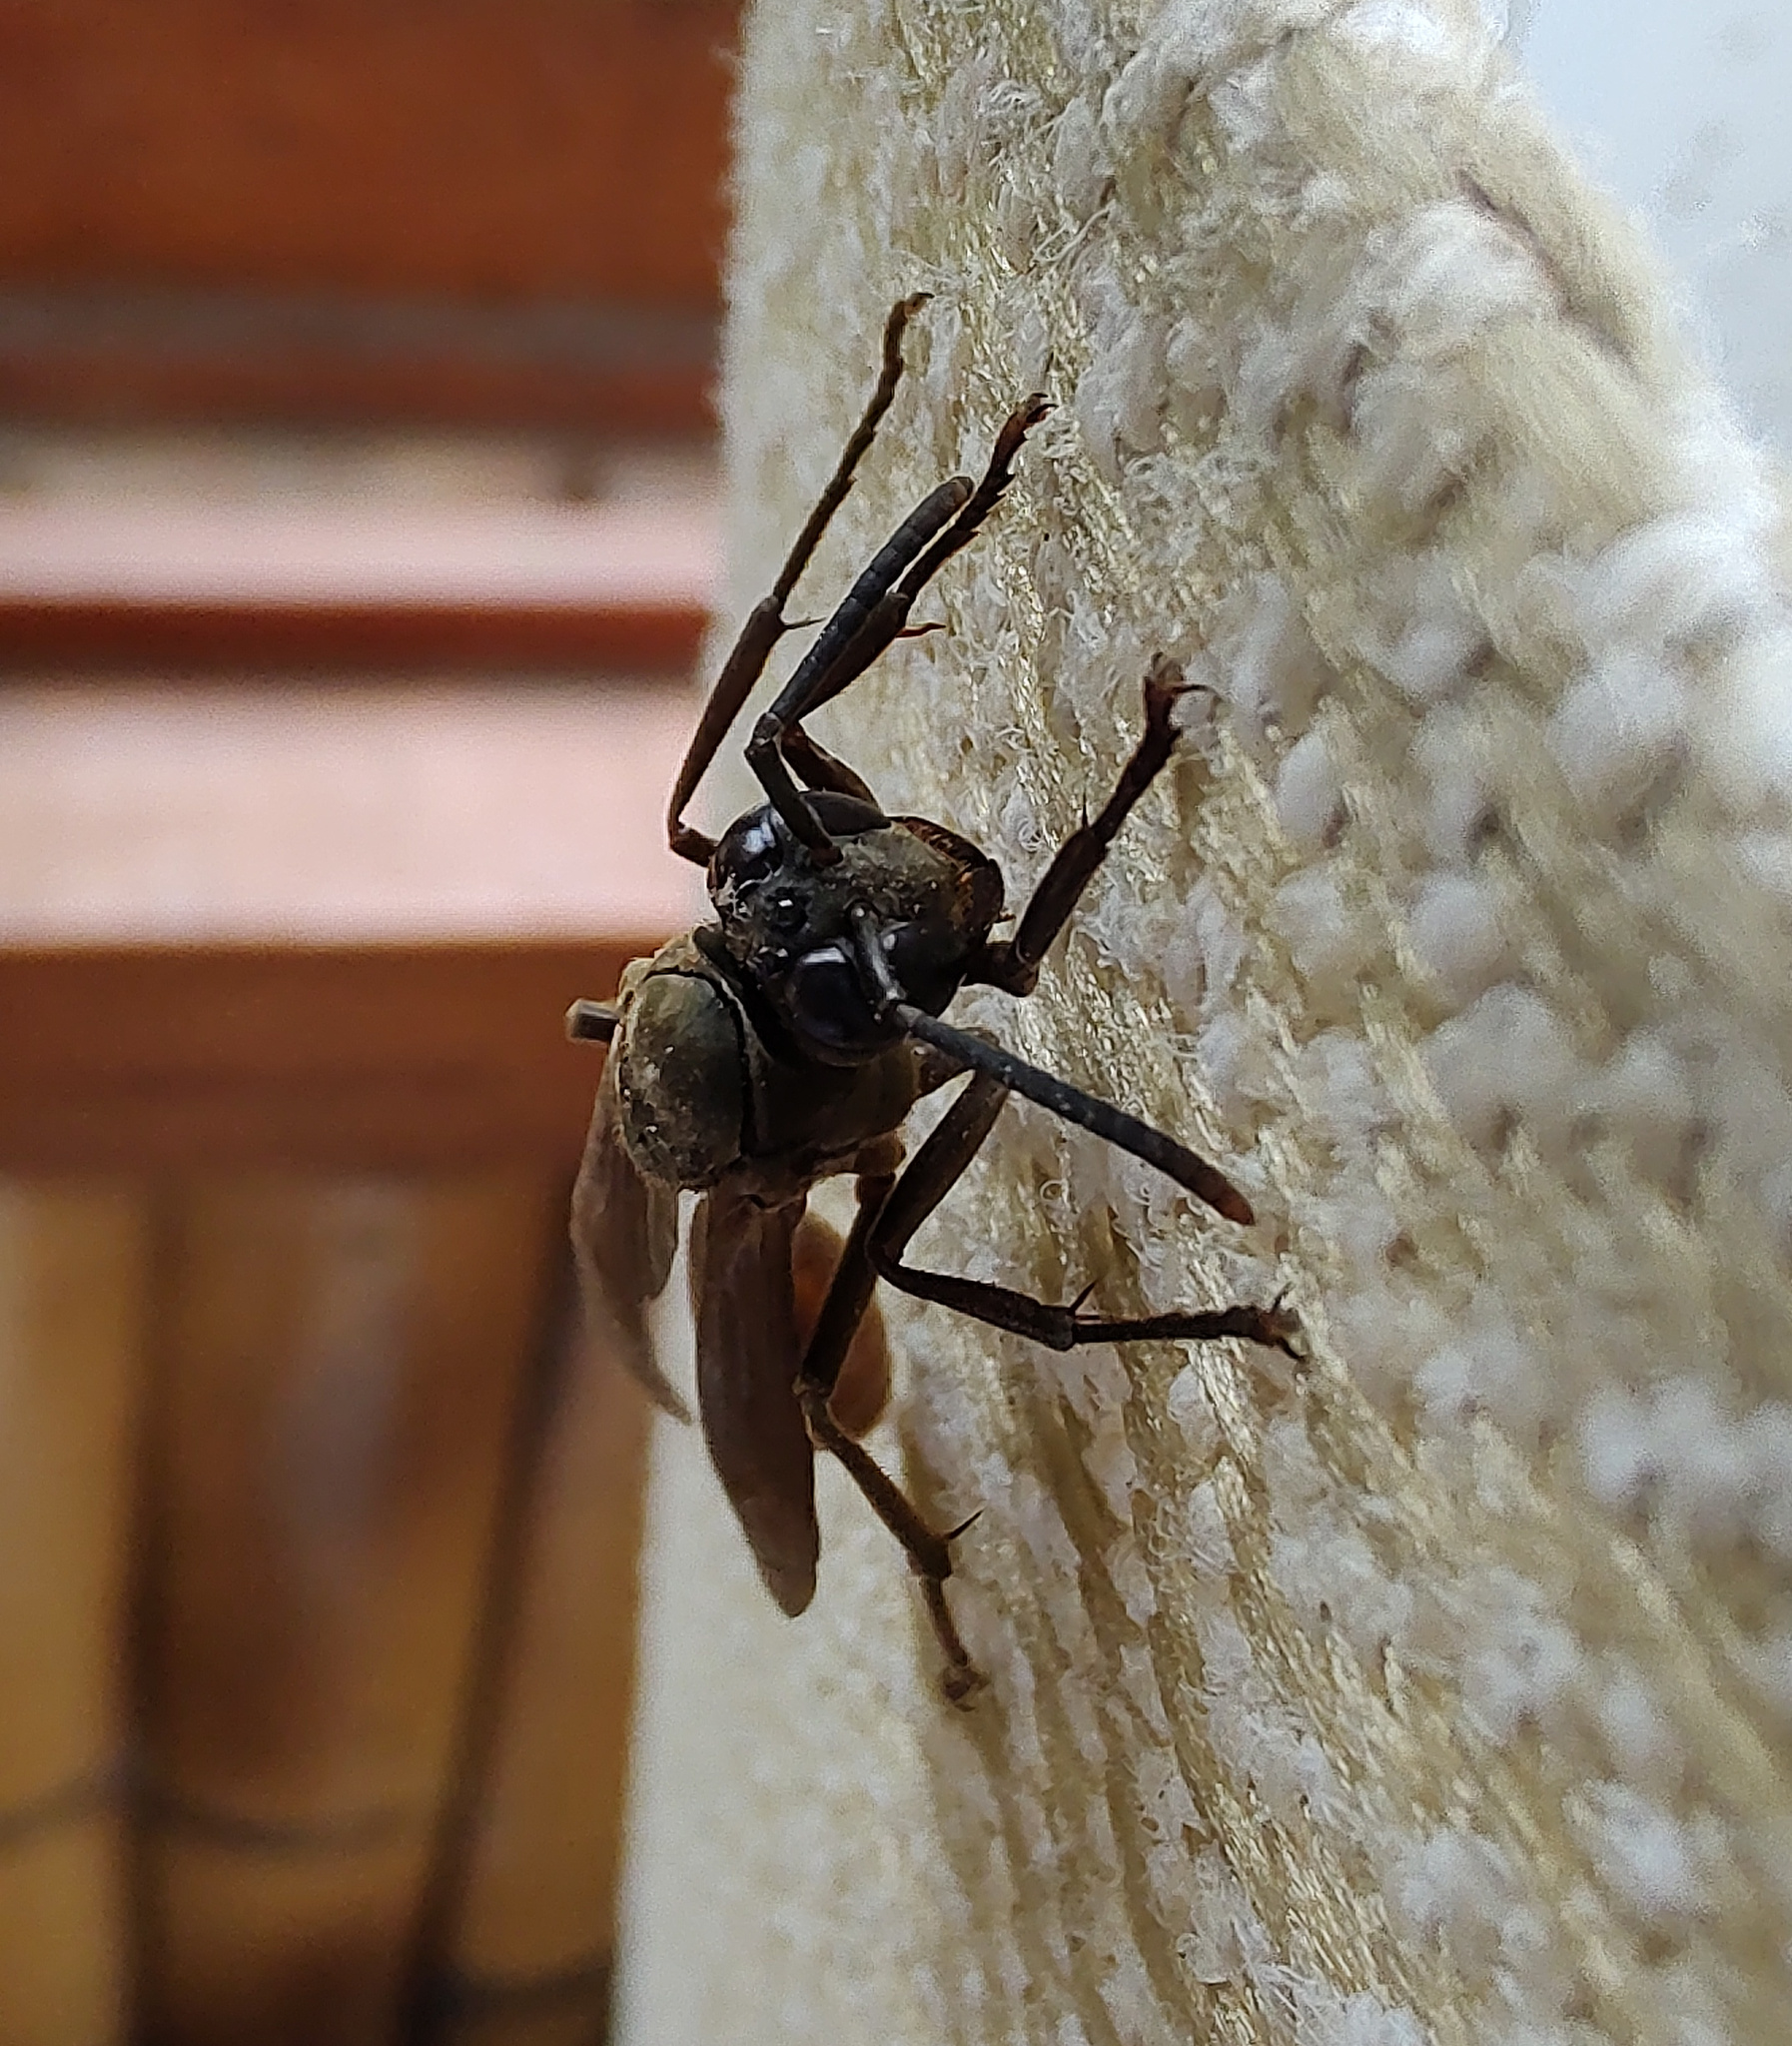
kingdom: Animalia
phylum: Arthropoda
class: Insecta
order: Hymenoptera
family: Vespidae
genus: Apoica
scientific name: Apoica thoracica
